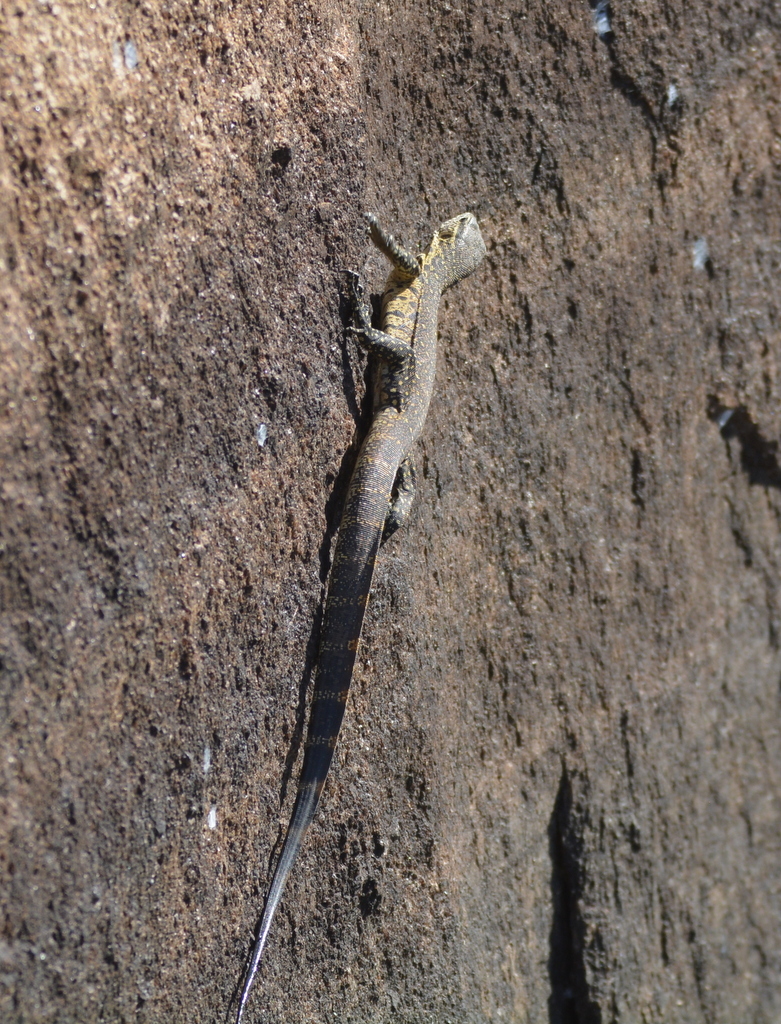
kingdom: Animalia
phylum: Chordata
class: Squamata
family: Varanidae
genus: Varanus
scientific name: Varanus niloticus
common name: Nile monitor
